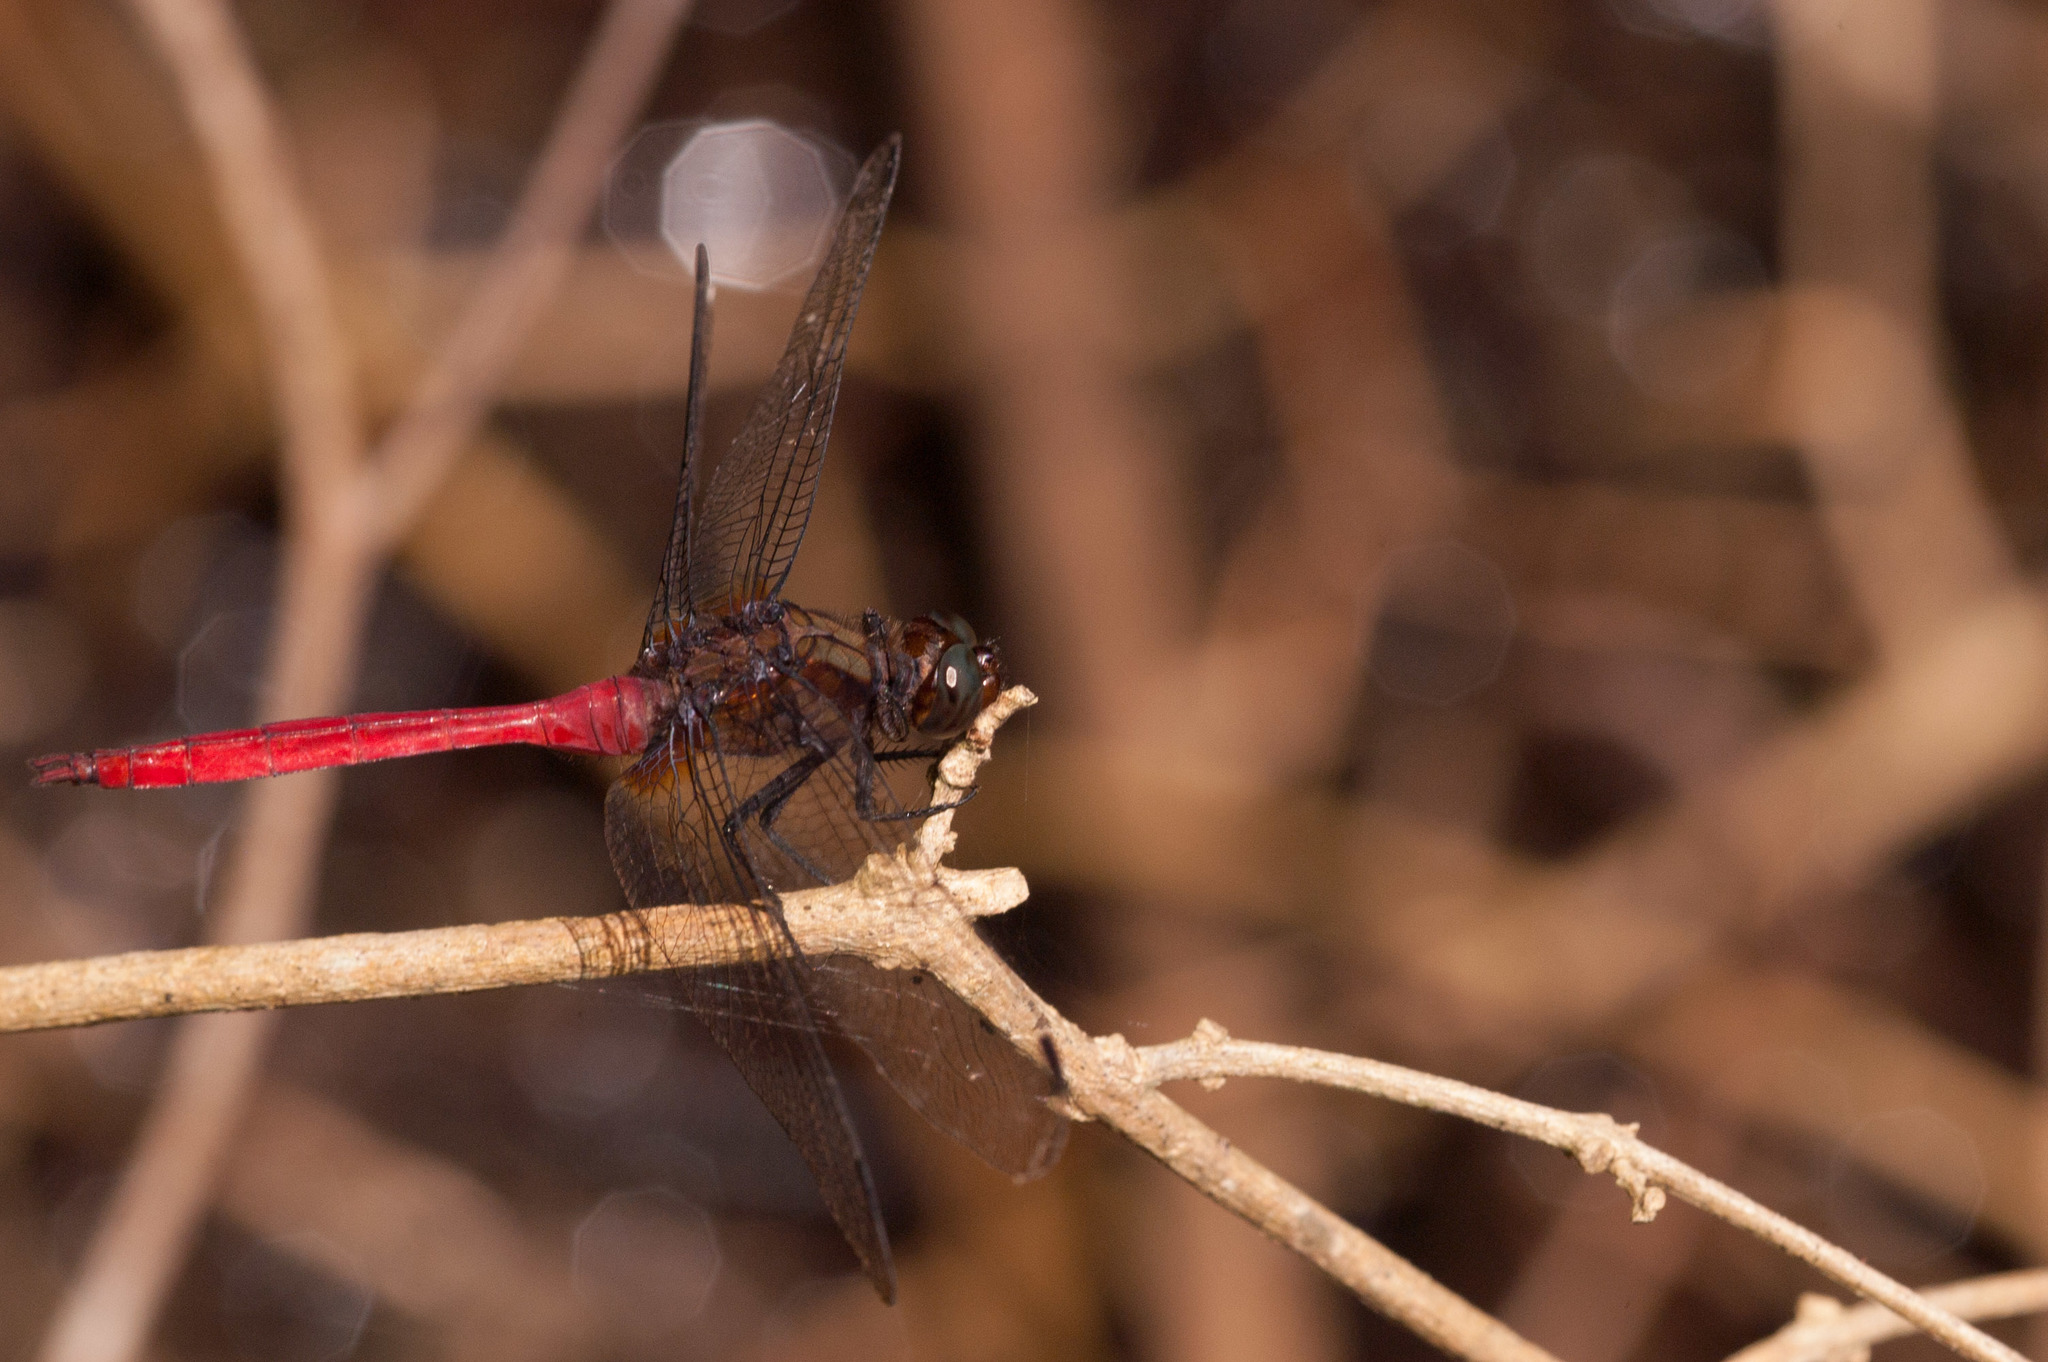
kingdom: Animalia
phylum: Arthropoda
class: Insecta
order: Odonata
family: Libellulidae
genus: Orthetrum
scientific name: Orthetrum villosovittatum
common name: Firery skimmer
